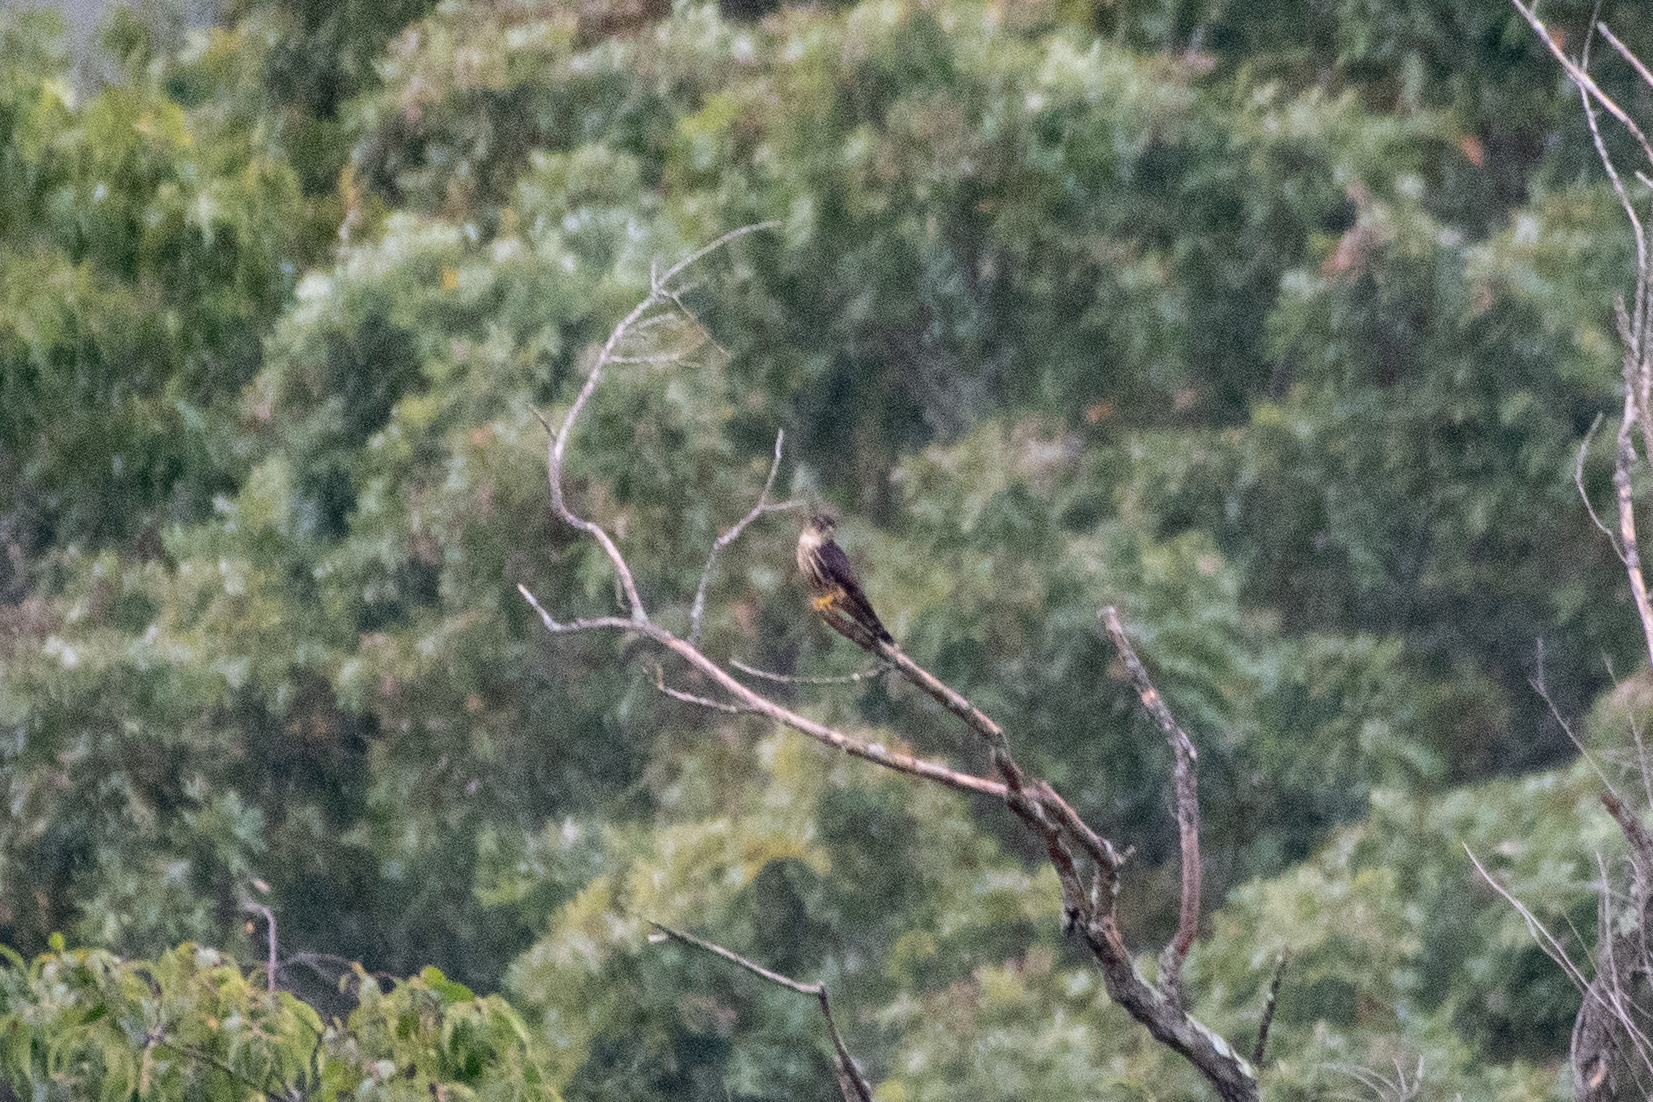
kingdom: Animalia
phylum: Chordata
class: Aves
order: Falconiformes
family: Falconidae
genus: Falco
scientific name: Falco columbarius
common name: Merlin
